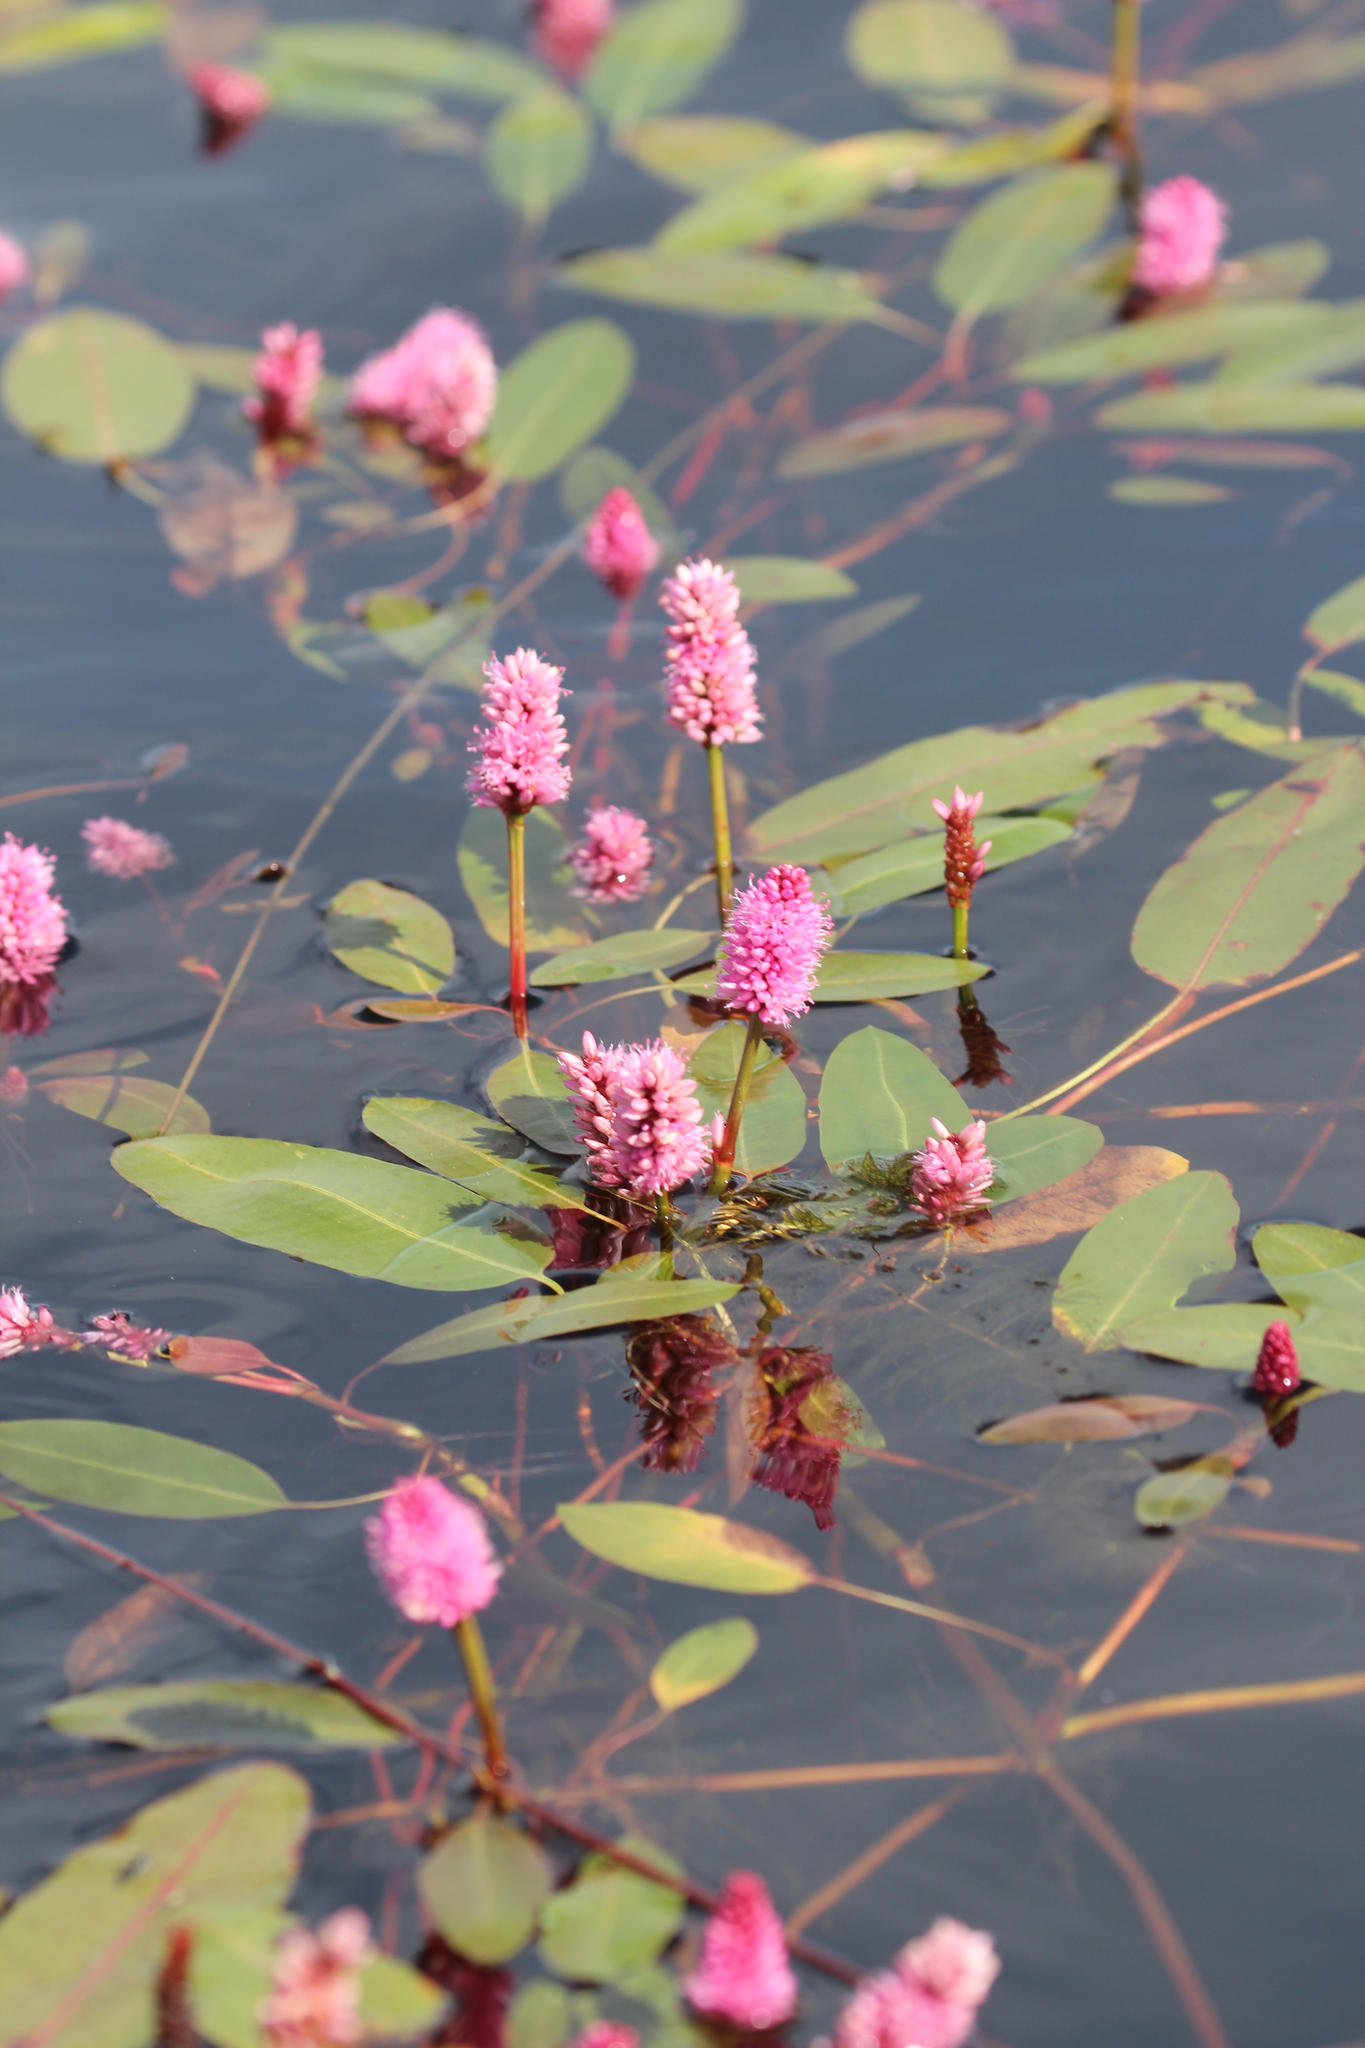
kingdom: Plantae
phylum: Tracheophyta
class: Magnoliopsida
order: Caryophyllales
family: Polygonaceae
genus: Persicaria
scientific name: Persicaria amphibia
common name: Amphibious bistort
